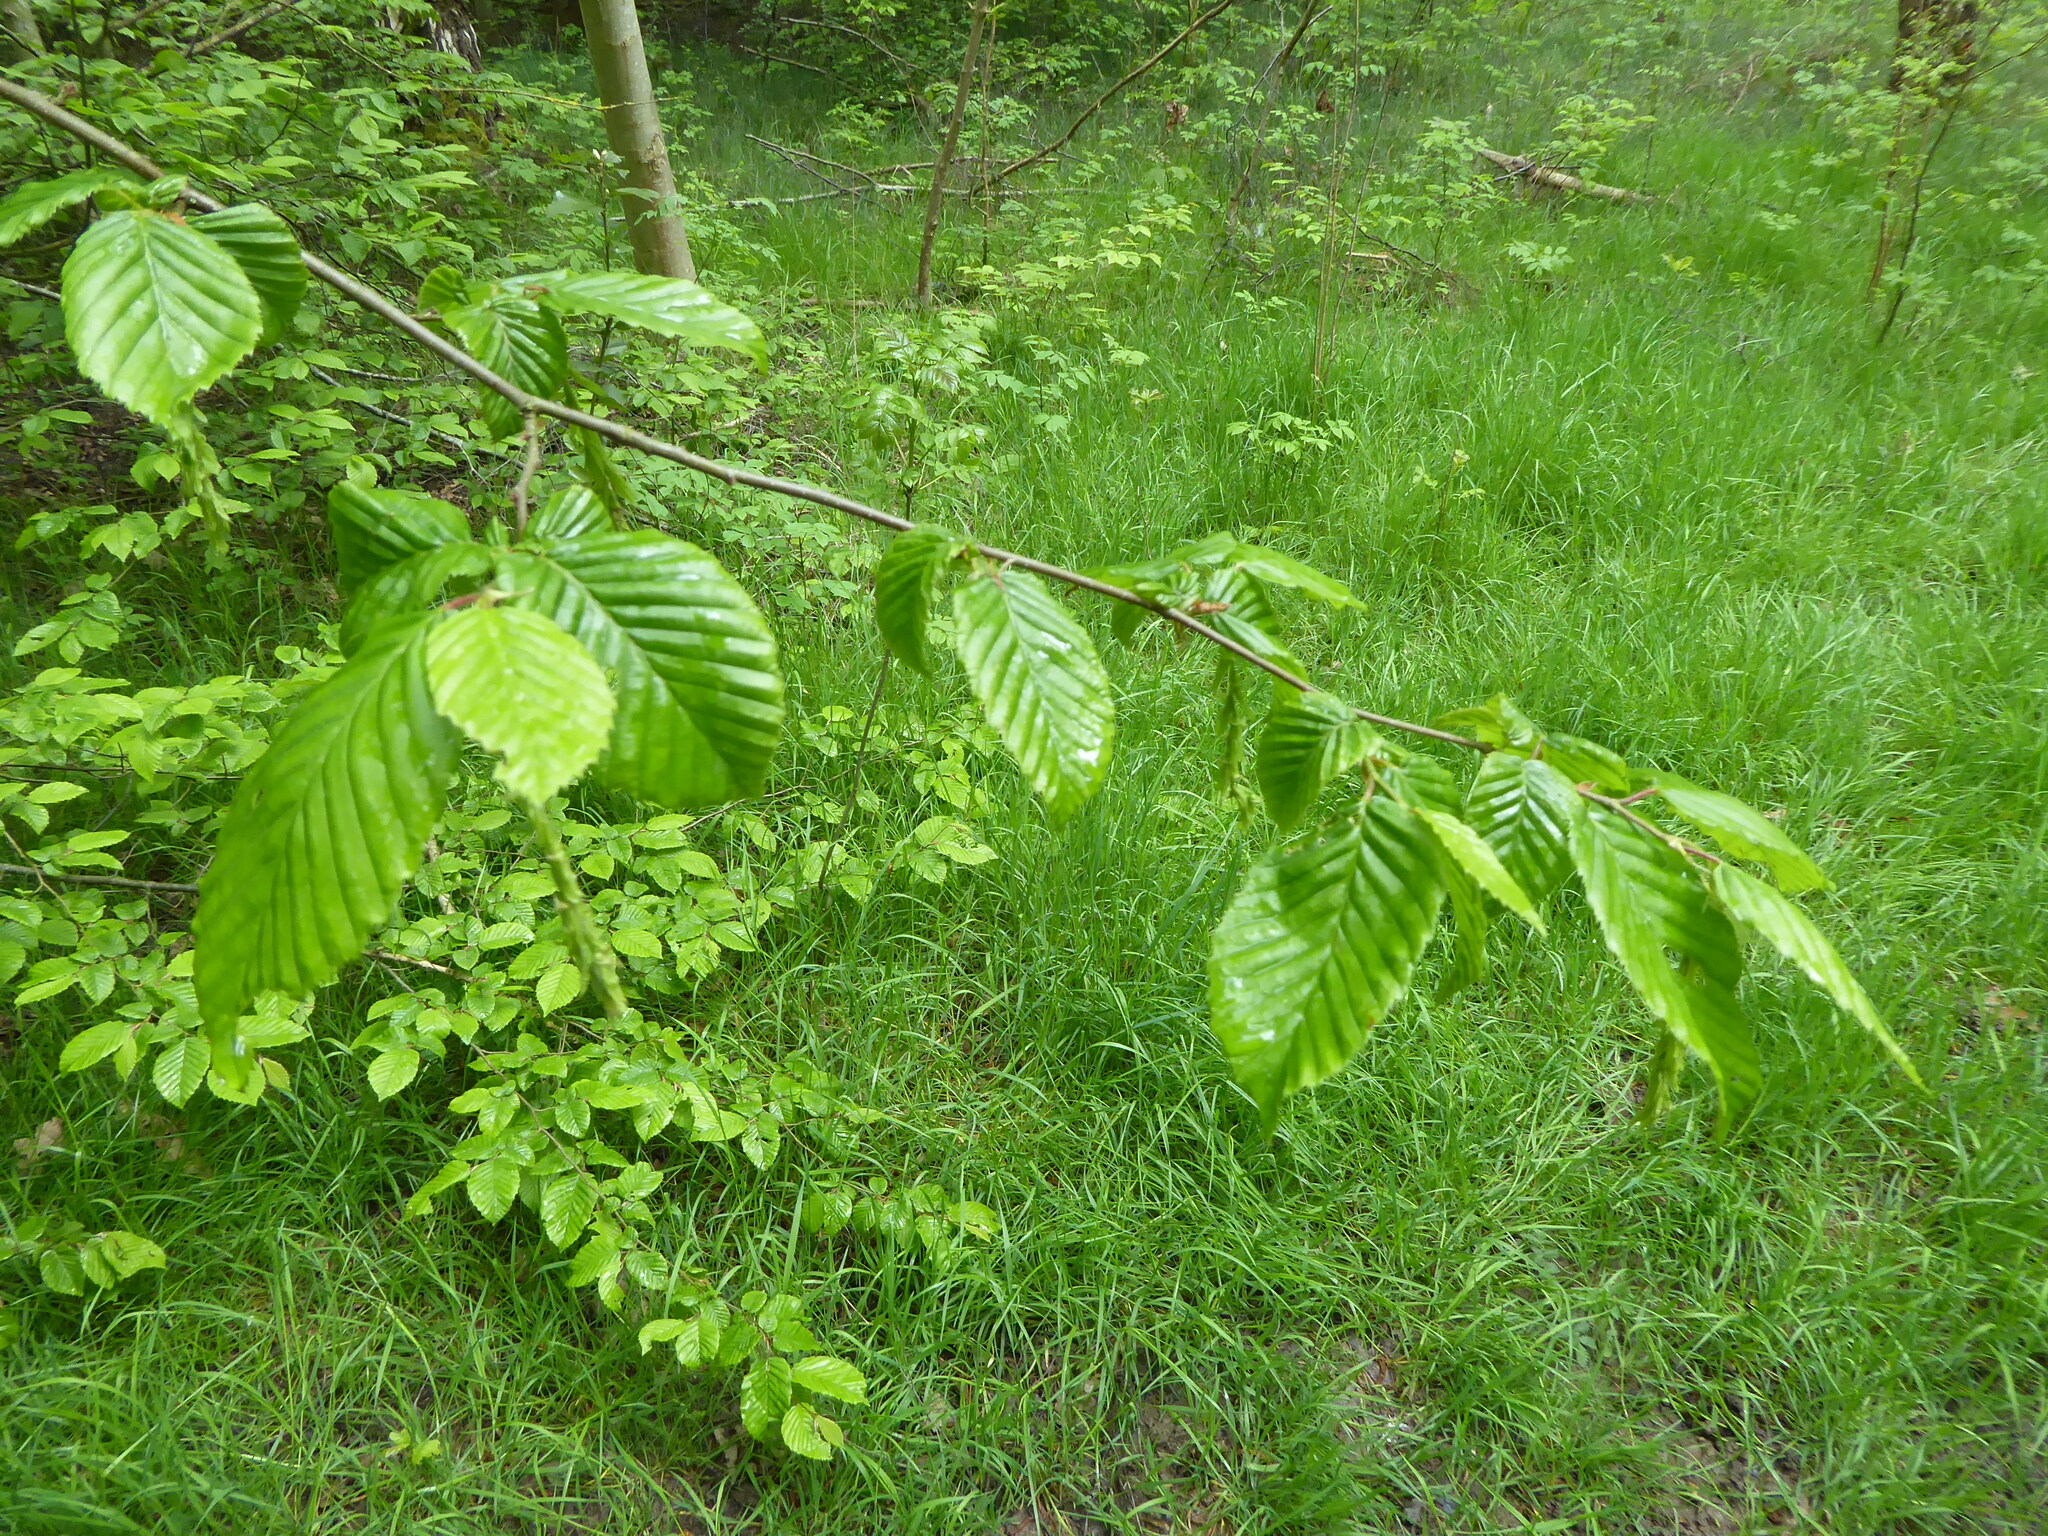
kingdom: Plantae
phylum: Tracheophyta
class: Magnoliopsida
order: Fagales
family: Betulaceae
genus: Carpinus
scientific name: Carpinus betulus
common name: Hornbeam
